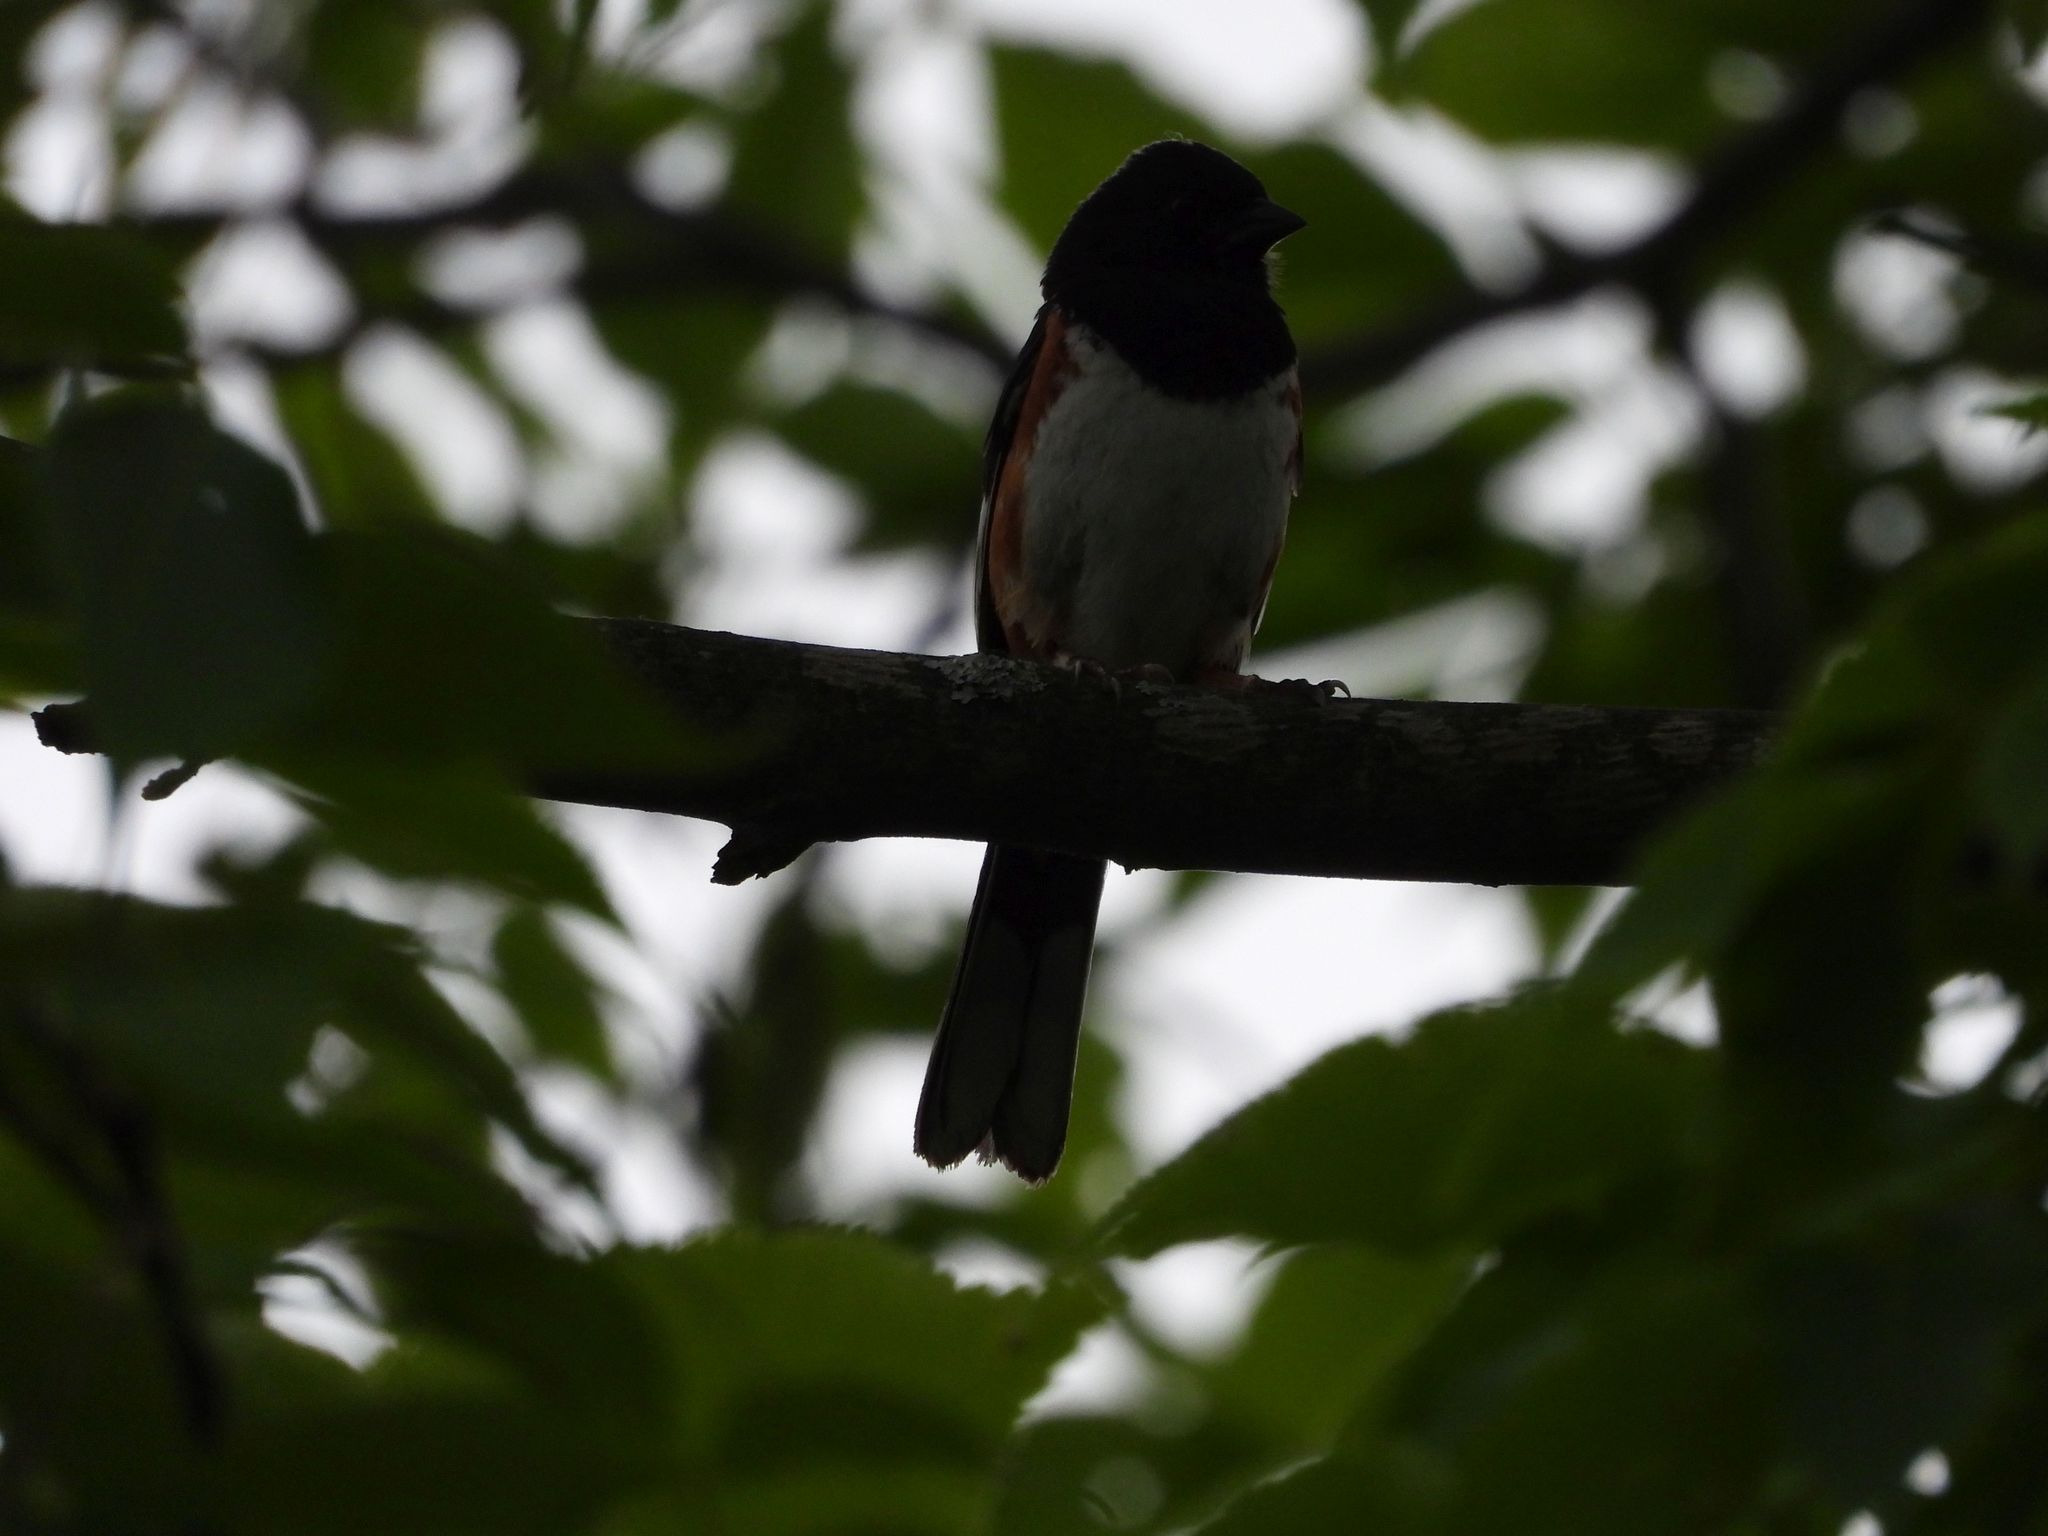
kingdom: Animalia
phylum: Chordata
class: Aves
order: Passeriformes
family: Passerellidae
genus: Pipilo
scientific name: Pipilo erythrophthalmus
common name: Eastern towhee
